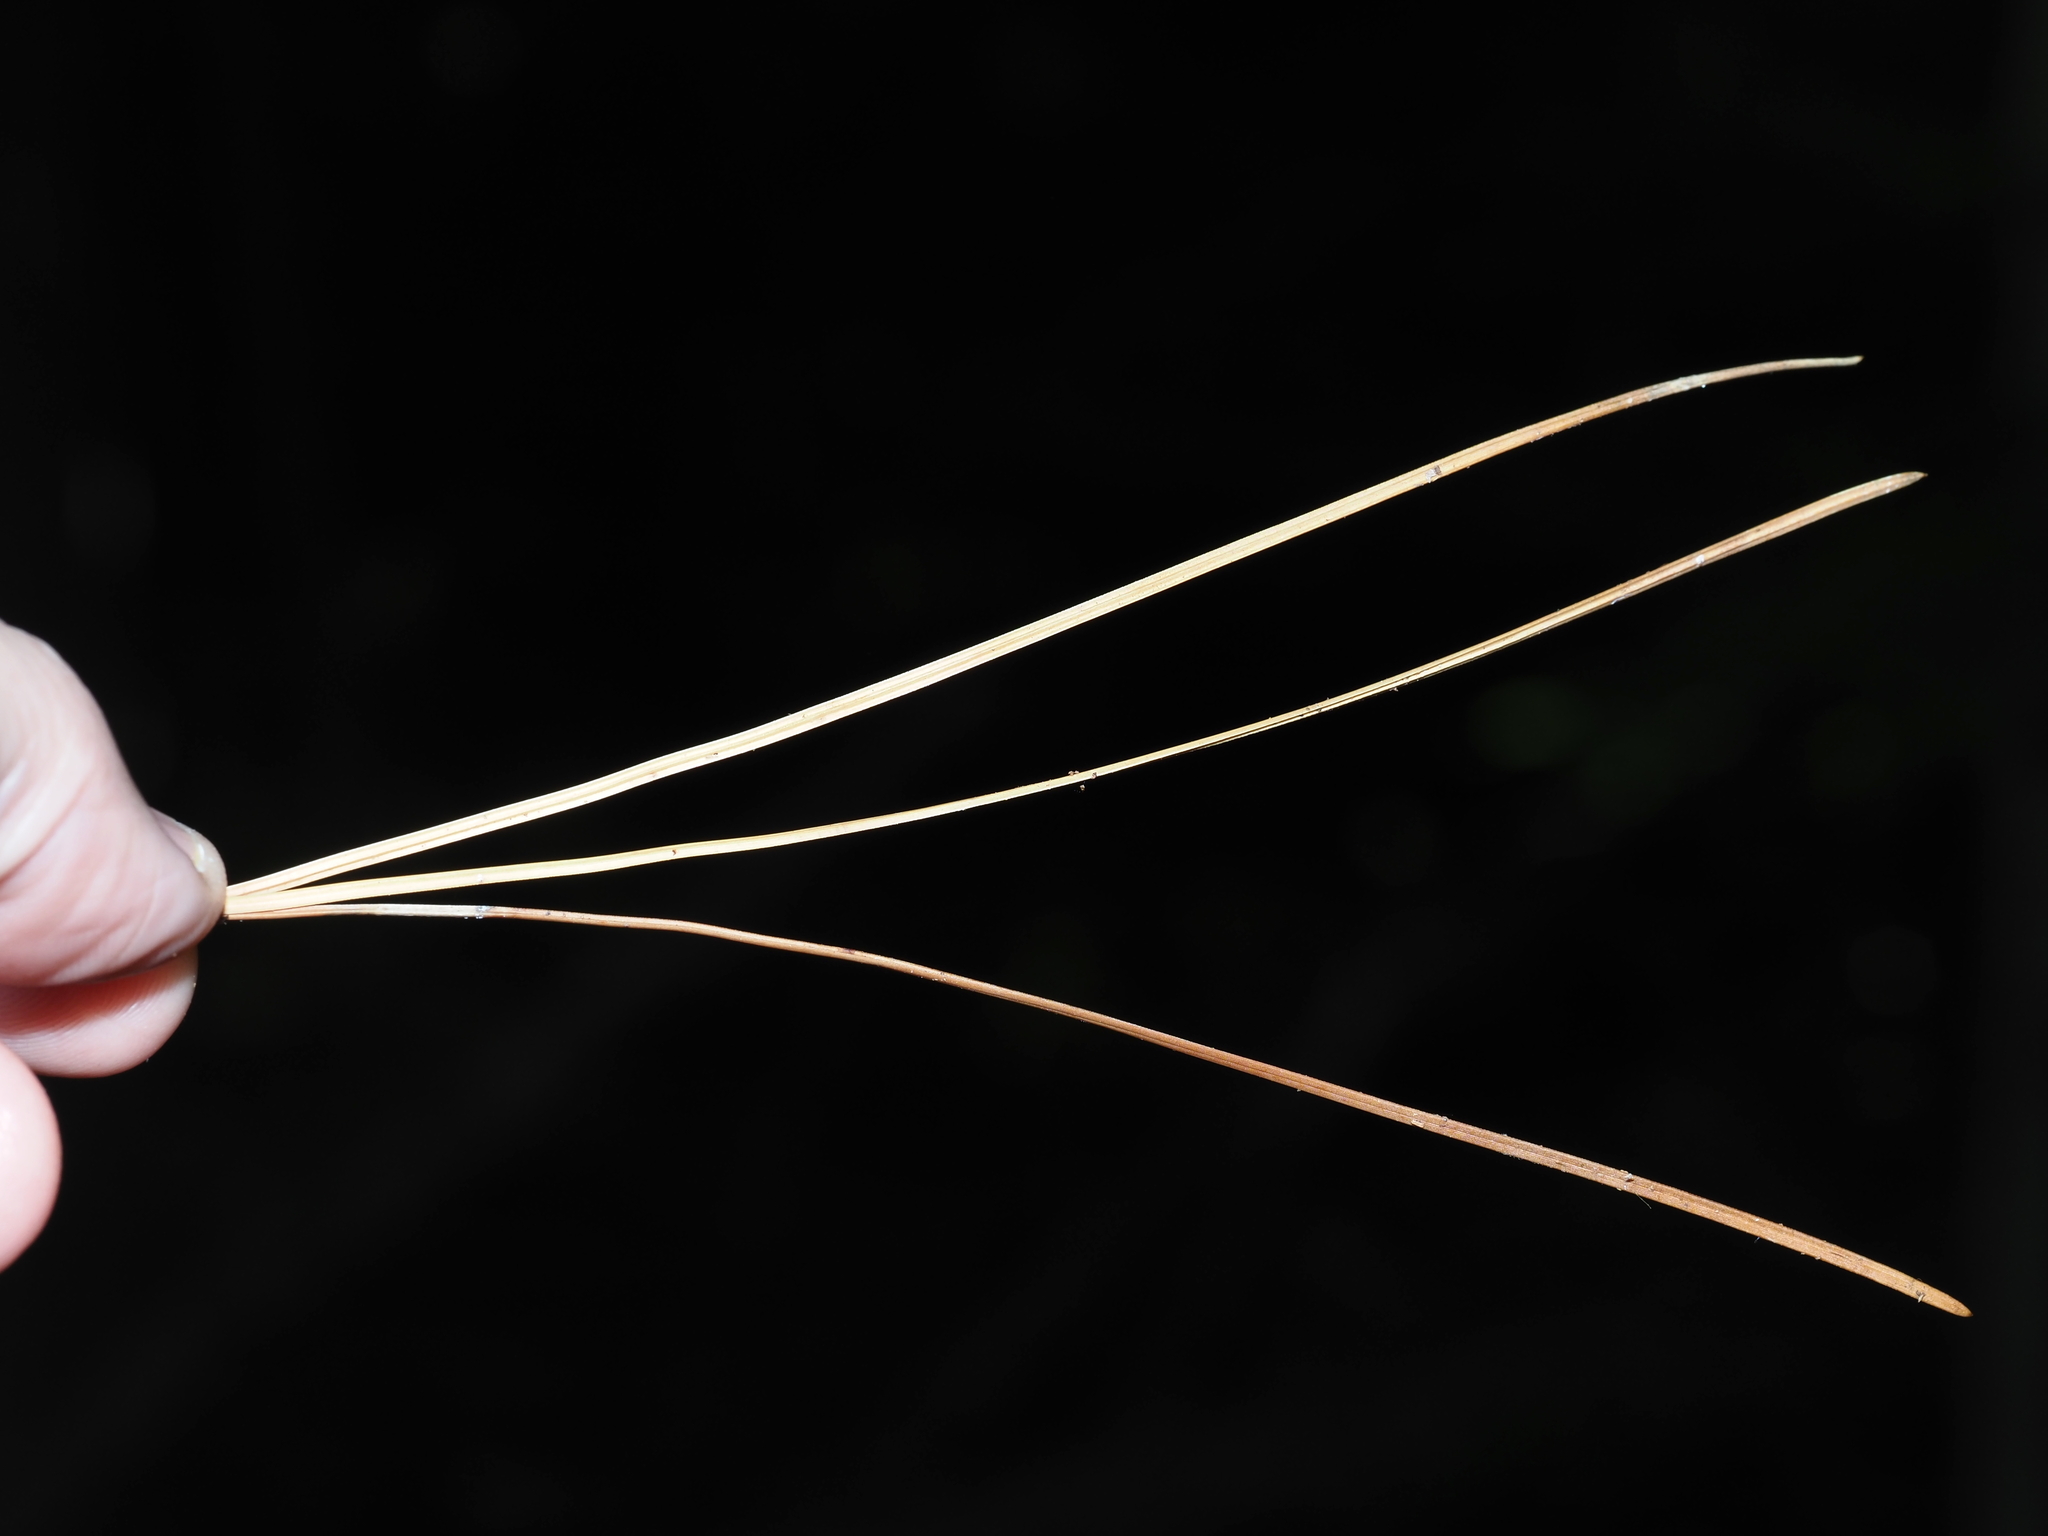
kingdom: Plantae
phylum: Tracheophyta
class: Pinopsida
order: Pinales
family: Pinaceae
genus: Pinus
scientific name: Pinus rigida
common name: Pitch pine
